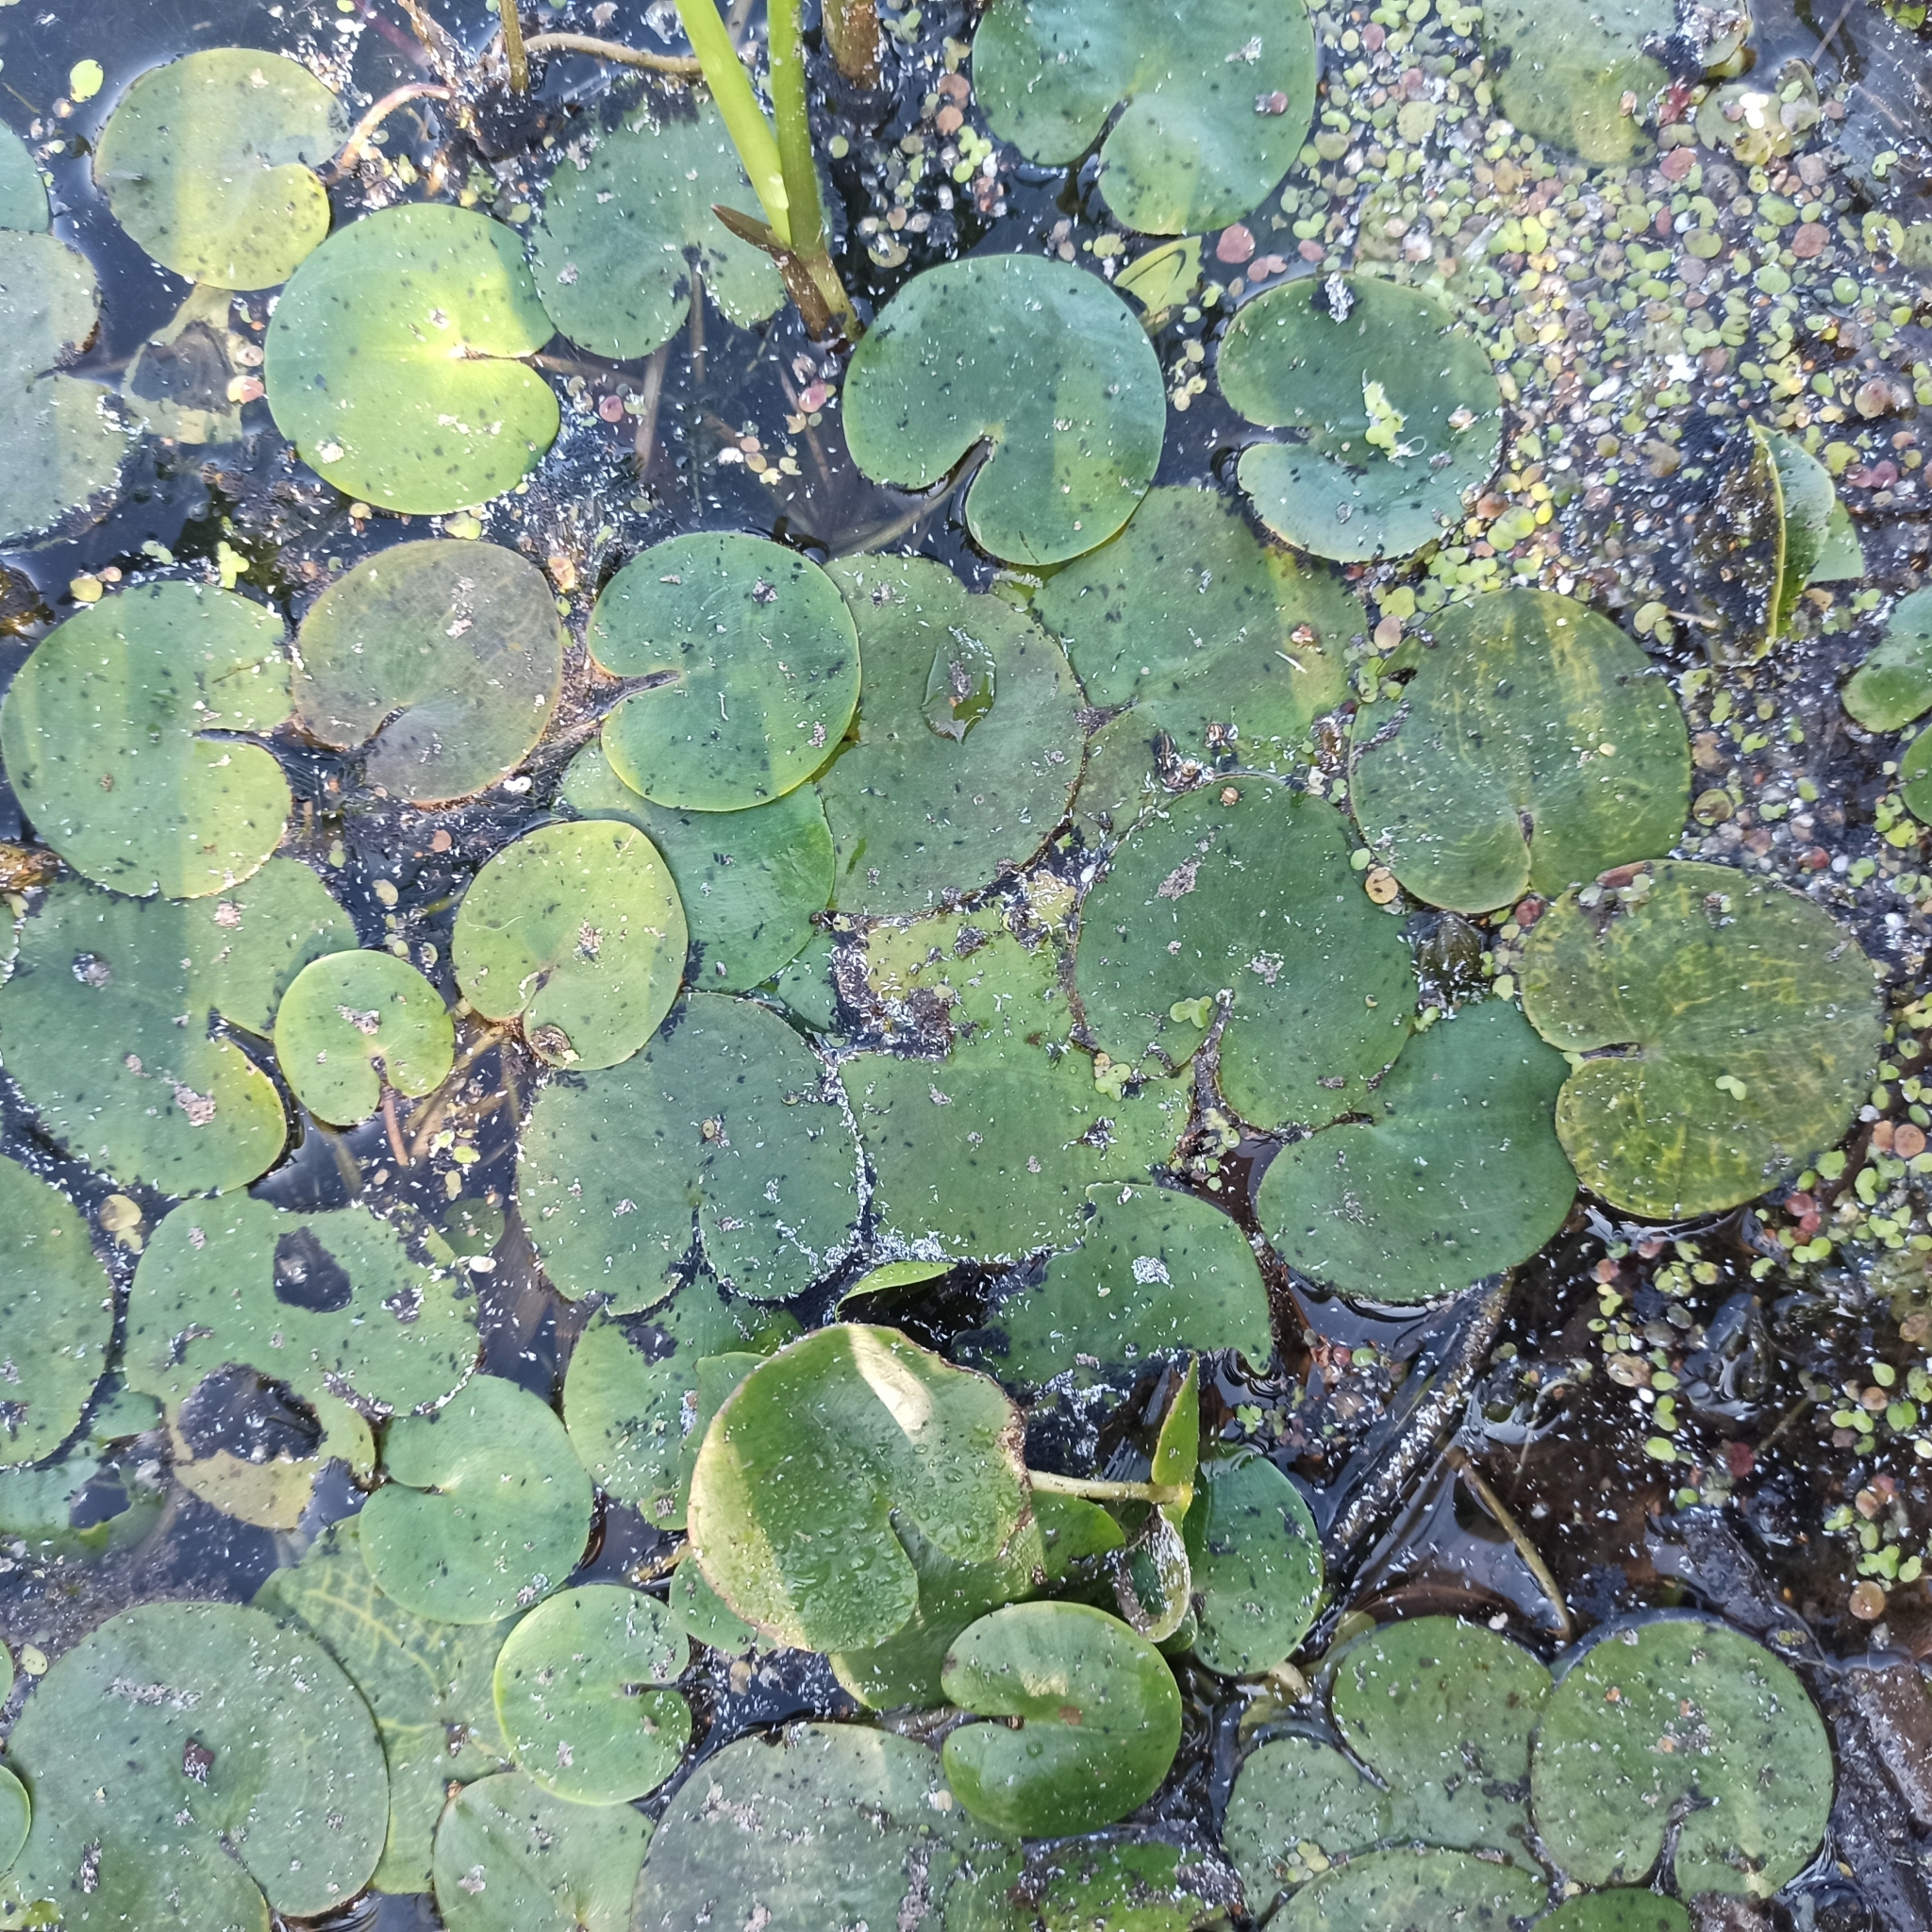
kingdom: Plantae
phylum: Tracheophyta
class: Liliopsida
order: Alismatales
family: Hydrocharitaceae
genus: Hydrocharis
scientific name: Hydrocharis morsus-ranae
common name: Frogbit
